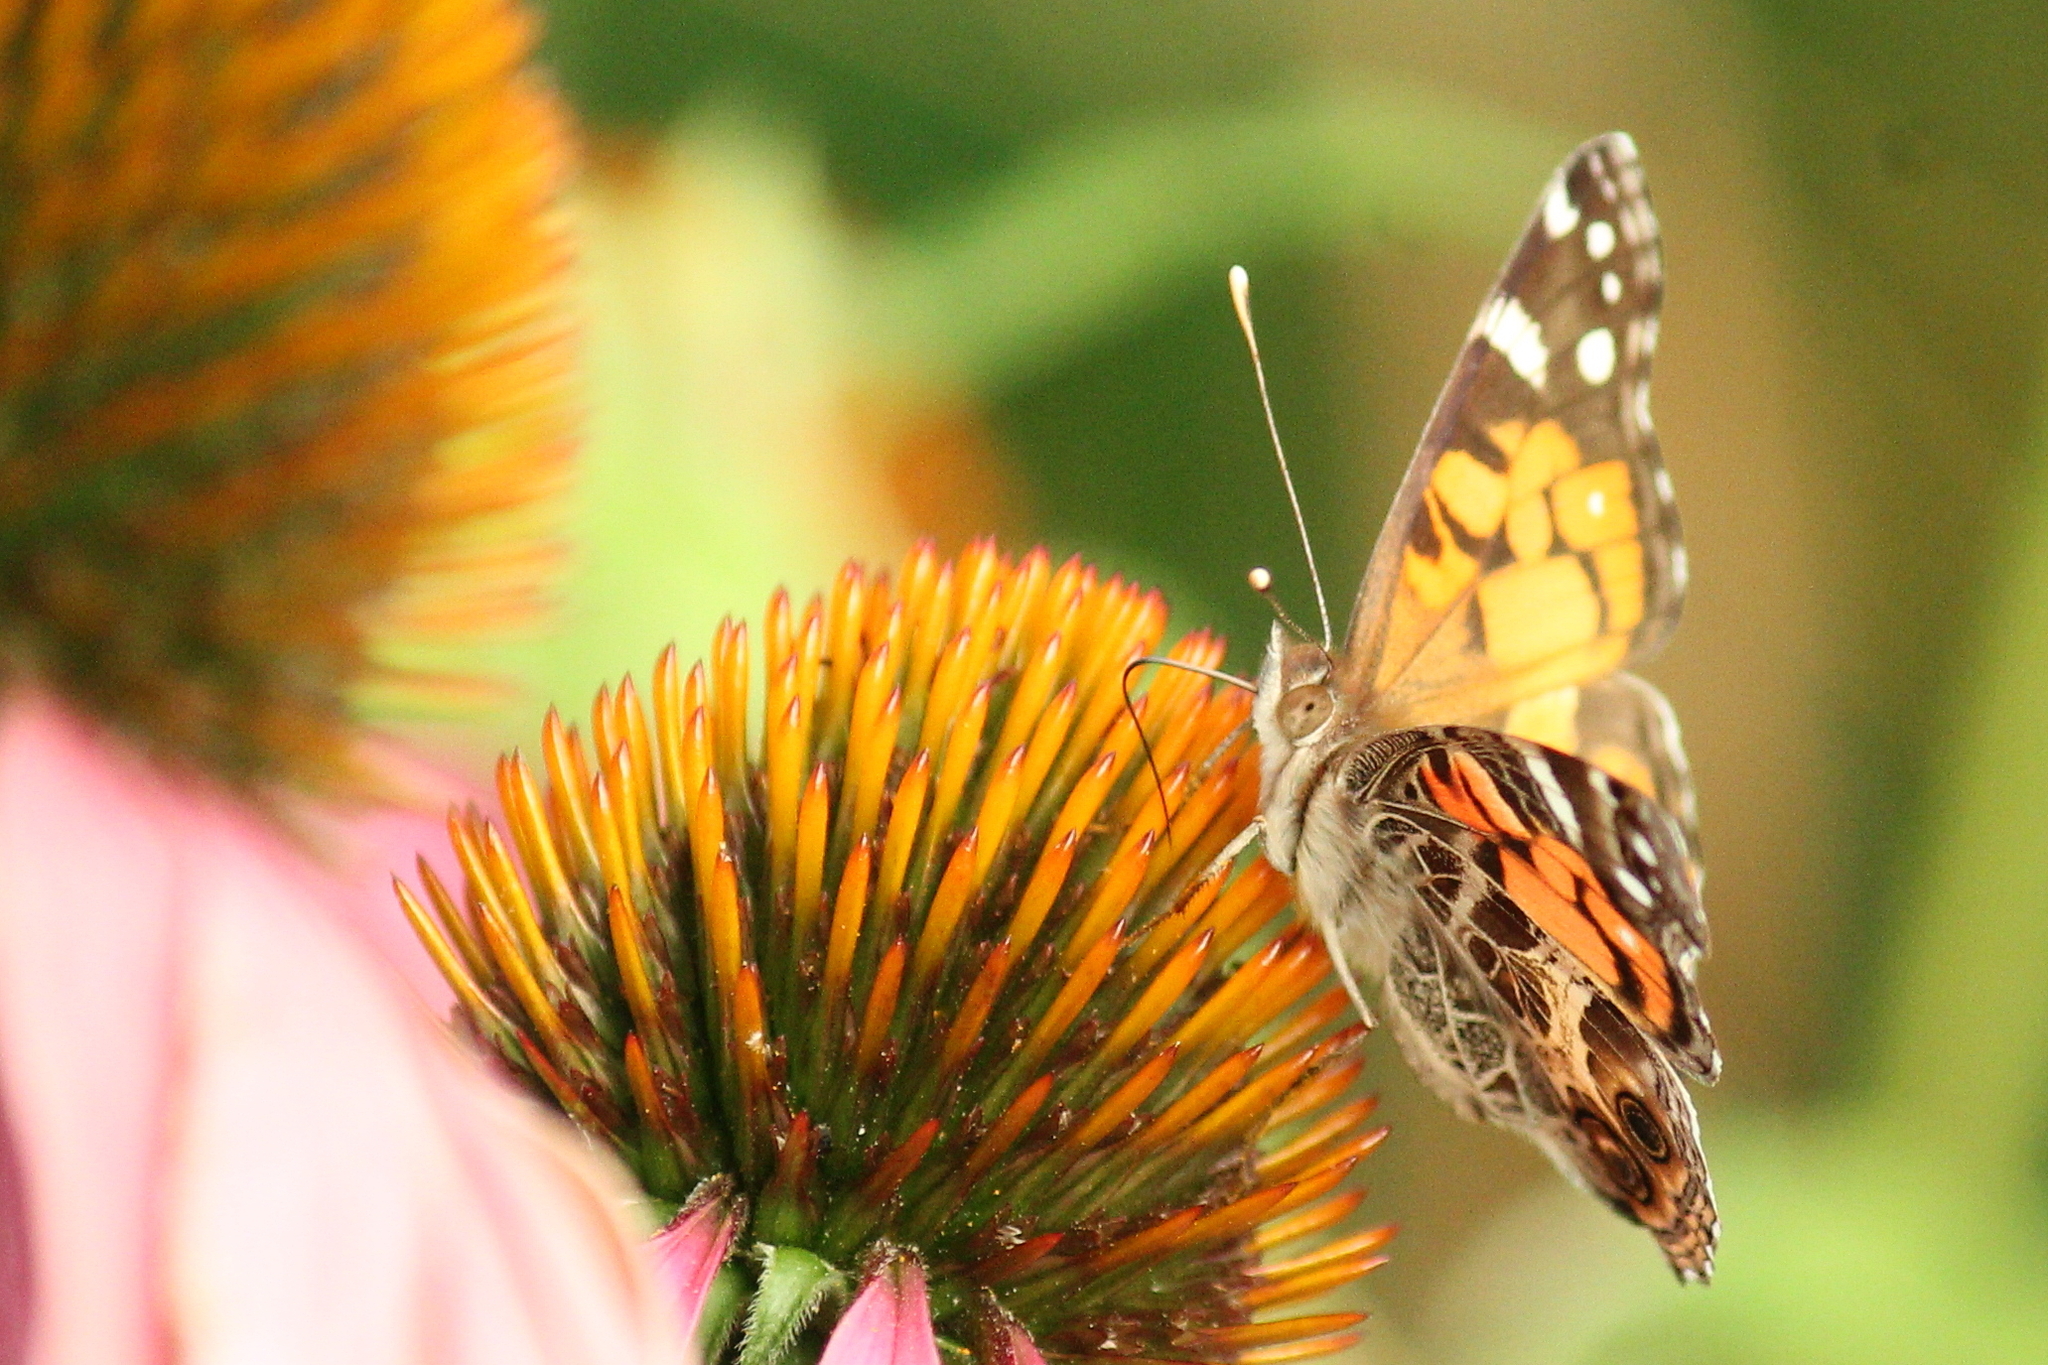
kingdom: Animalia
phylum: Arthropoda
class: Insecta
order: Lepidoptera
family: Nymphalidae
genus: Vanessa
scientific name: Vanessa virginiensis
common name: American lady
